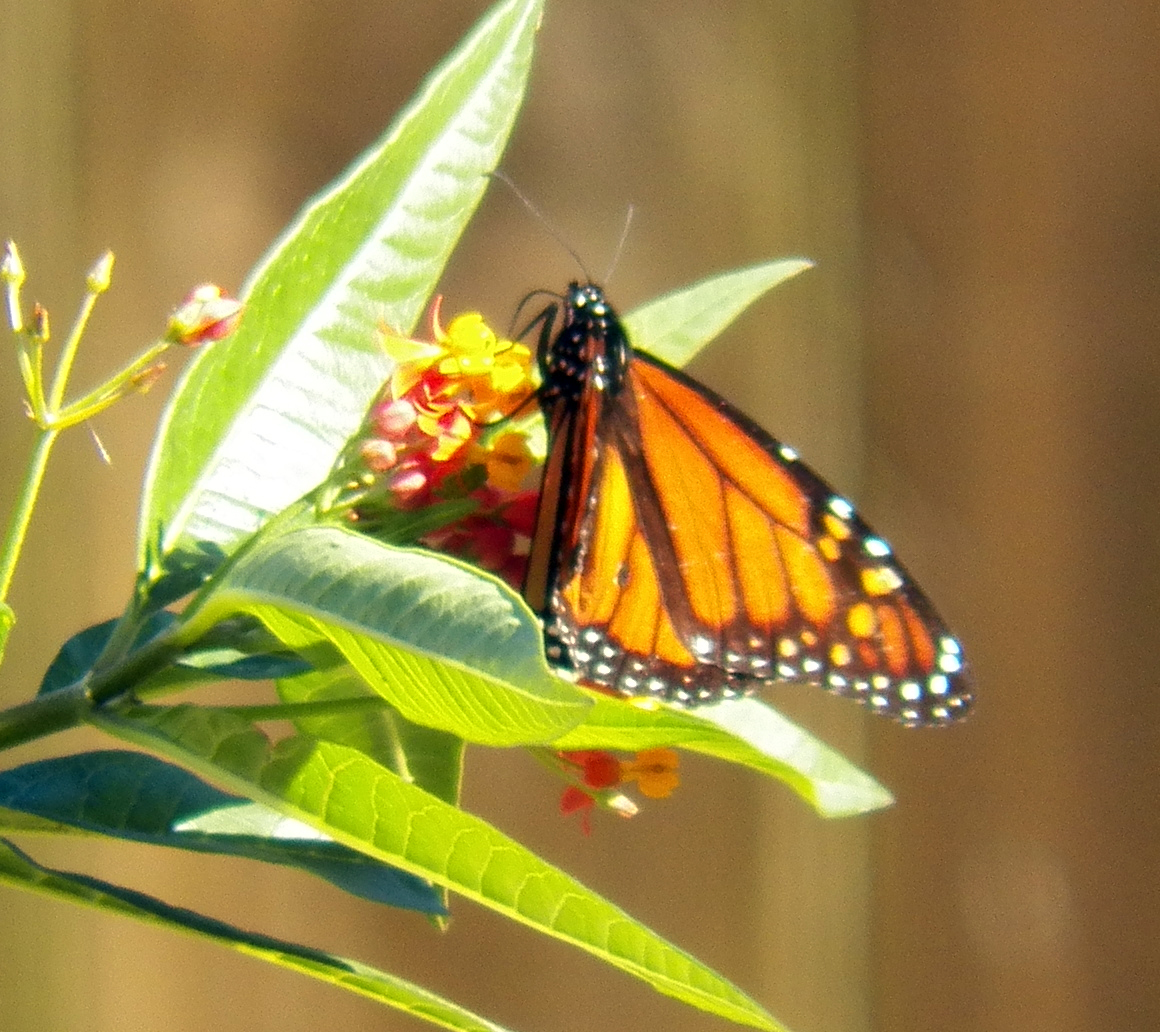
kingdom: Animalia
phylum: Arthropoda
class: Insecta
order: Lepidoptera
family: Nymphalidae
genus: Danaus
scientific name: Danaus plexippus
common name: Monarch
